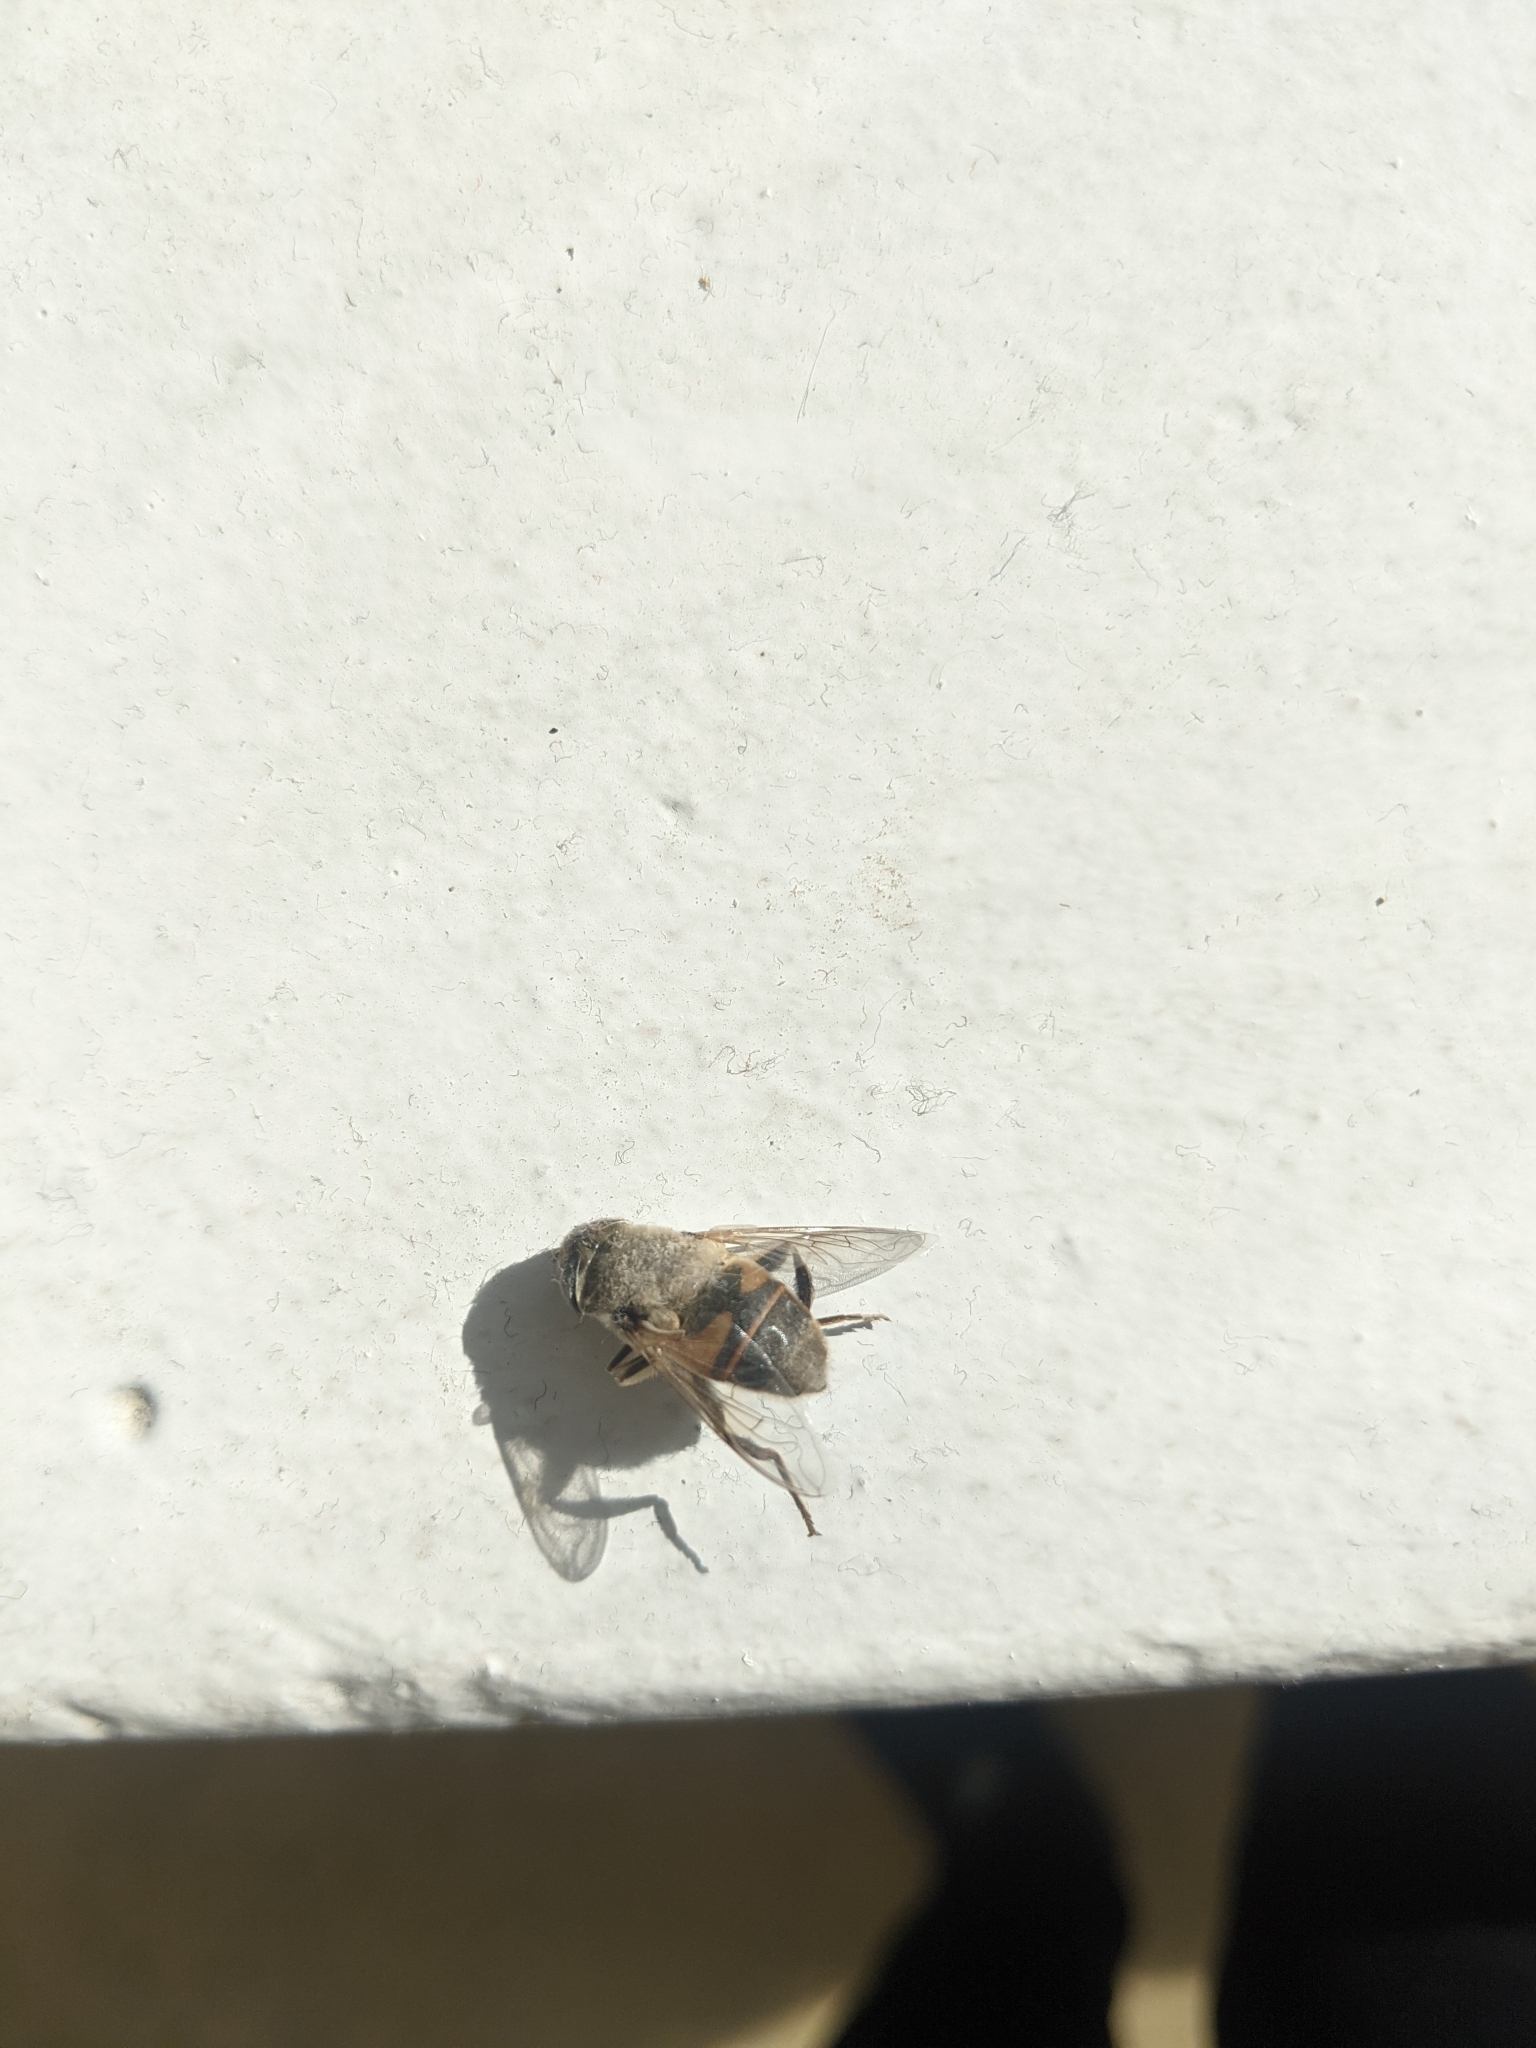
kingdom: Animalia
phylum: Arthropoda
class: Insecta
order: Diptera
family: Syrphidae
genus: Eristalis
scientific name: Eristalis tenax
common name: Drone fly
